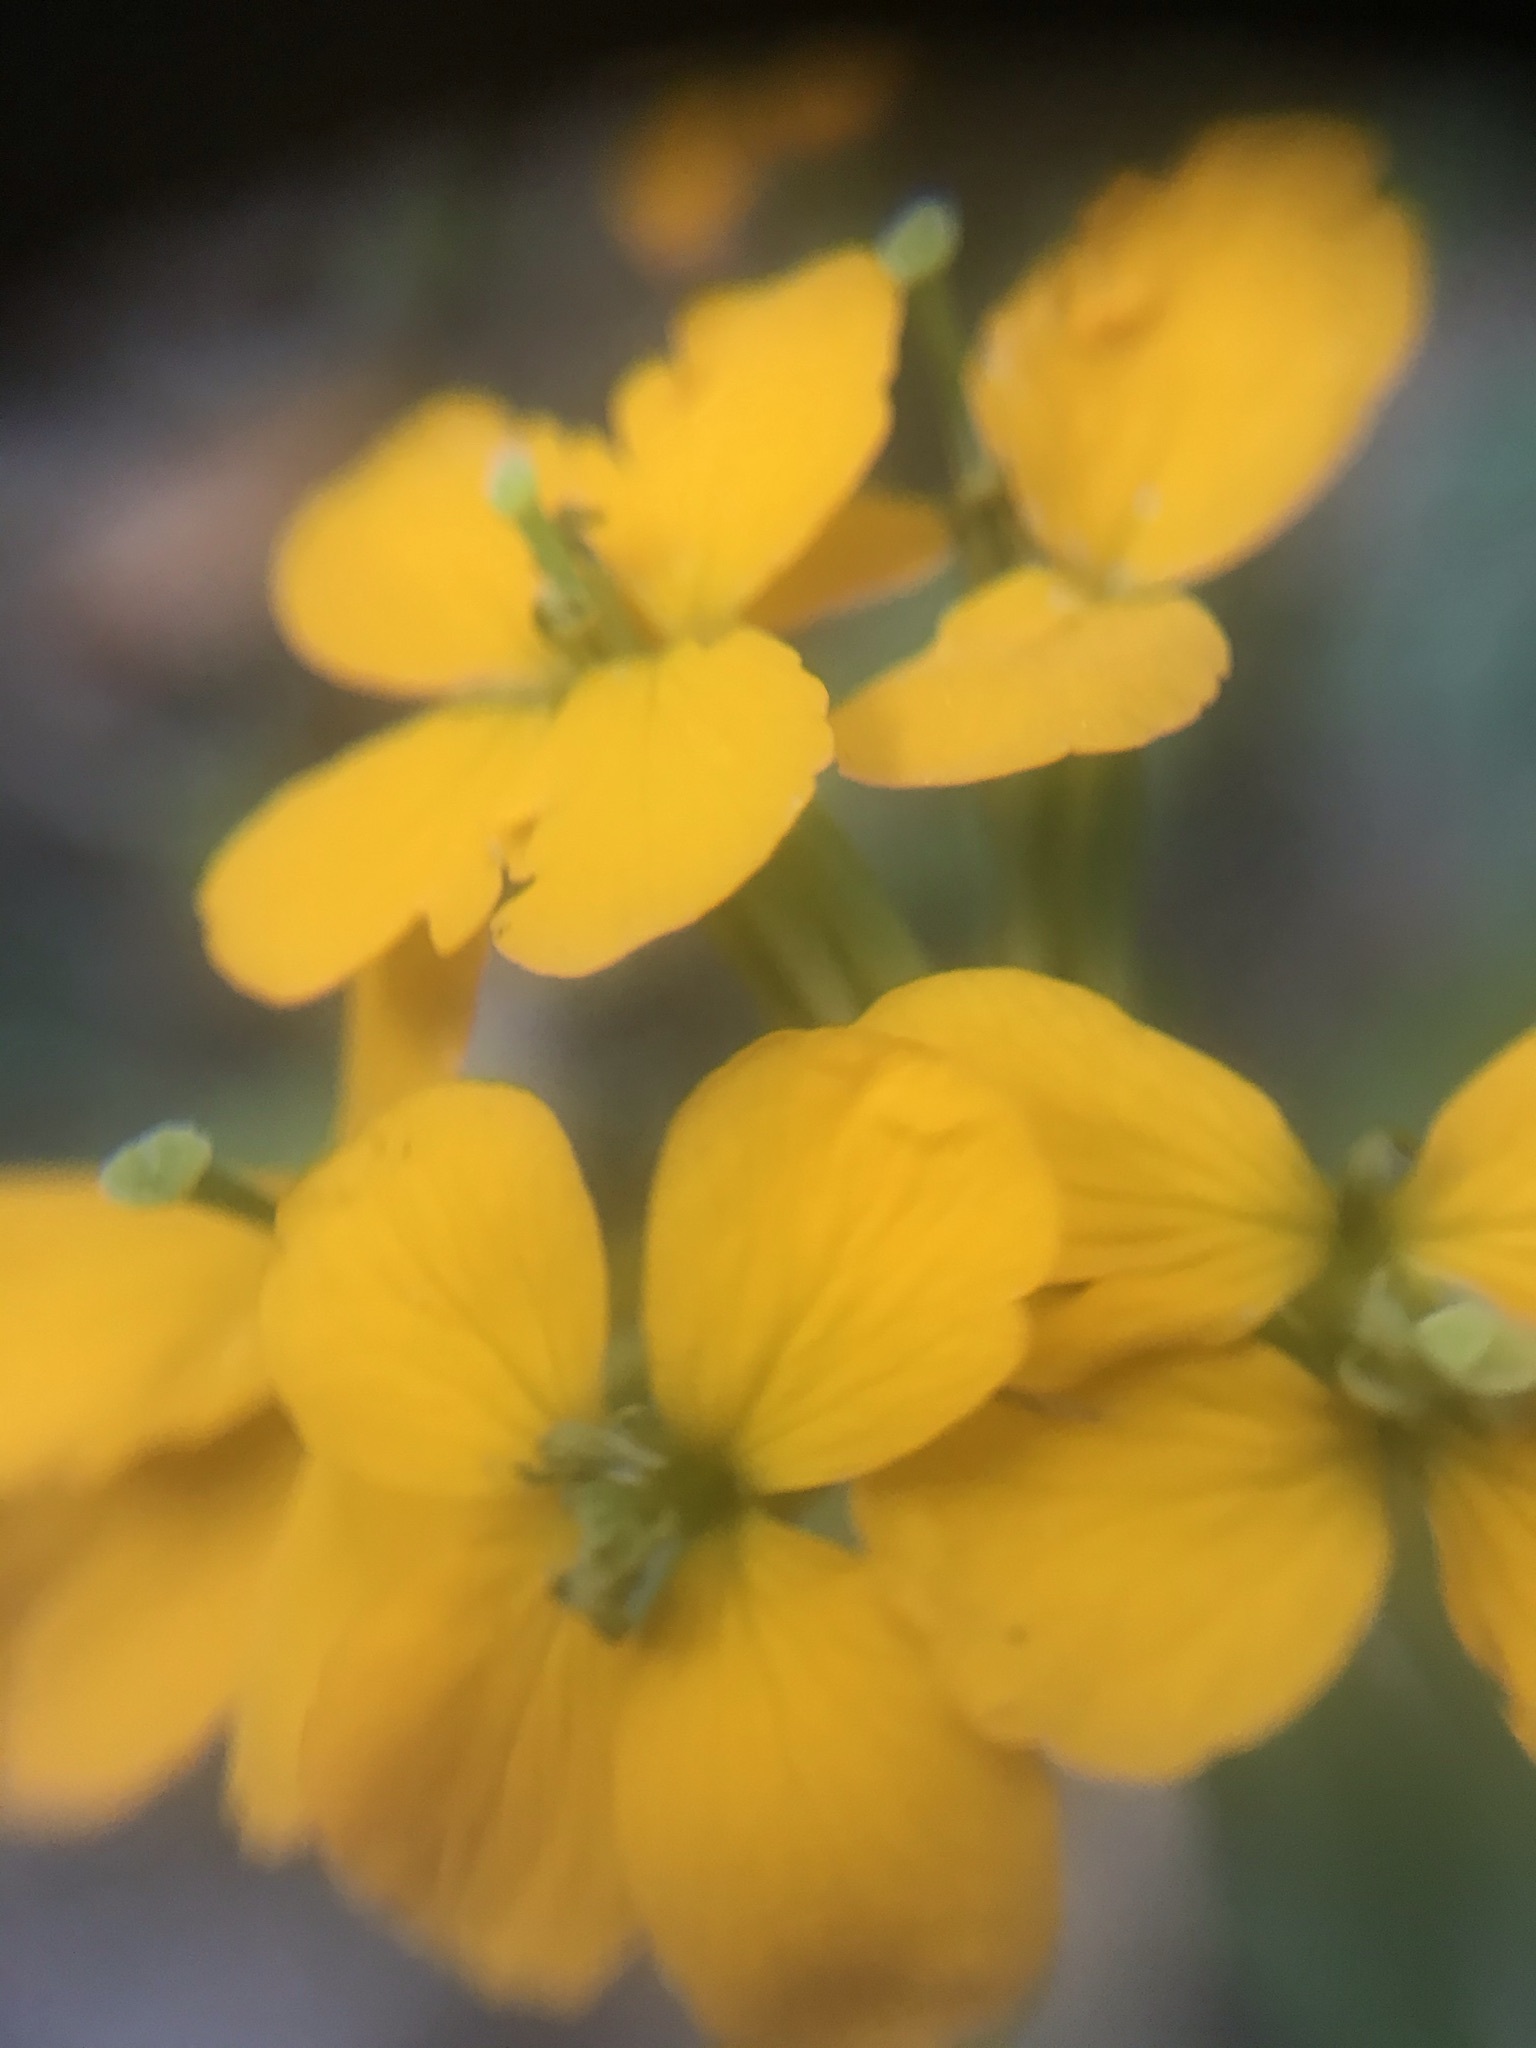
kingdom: Plantae
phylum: Tracheophyta
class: Magnoliopsida
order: Brassicales
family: Brassicaceae
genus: Erysimum
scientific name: Erysimum capitatum
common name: Western wallflower
